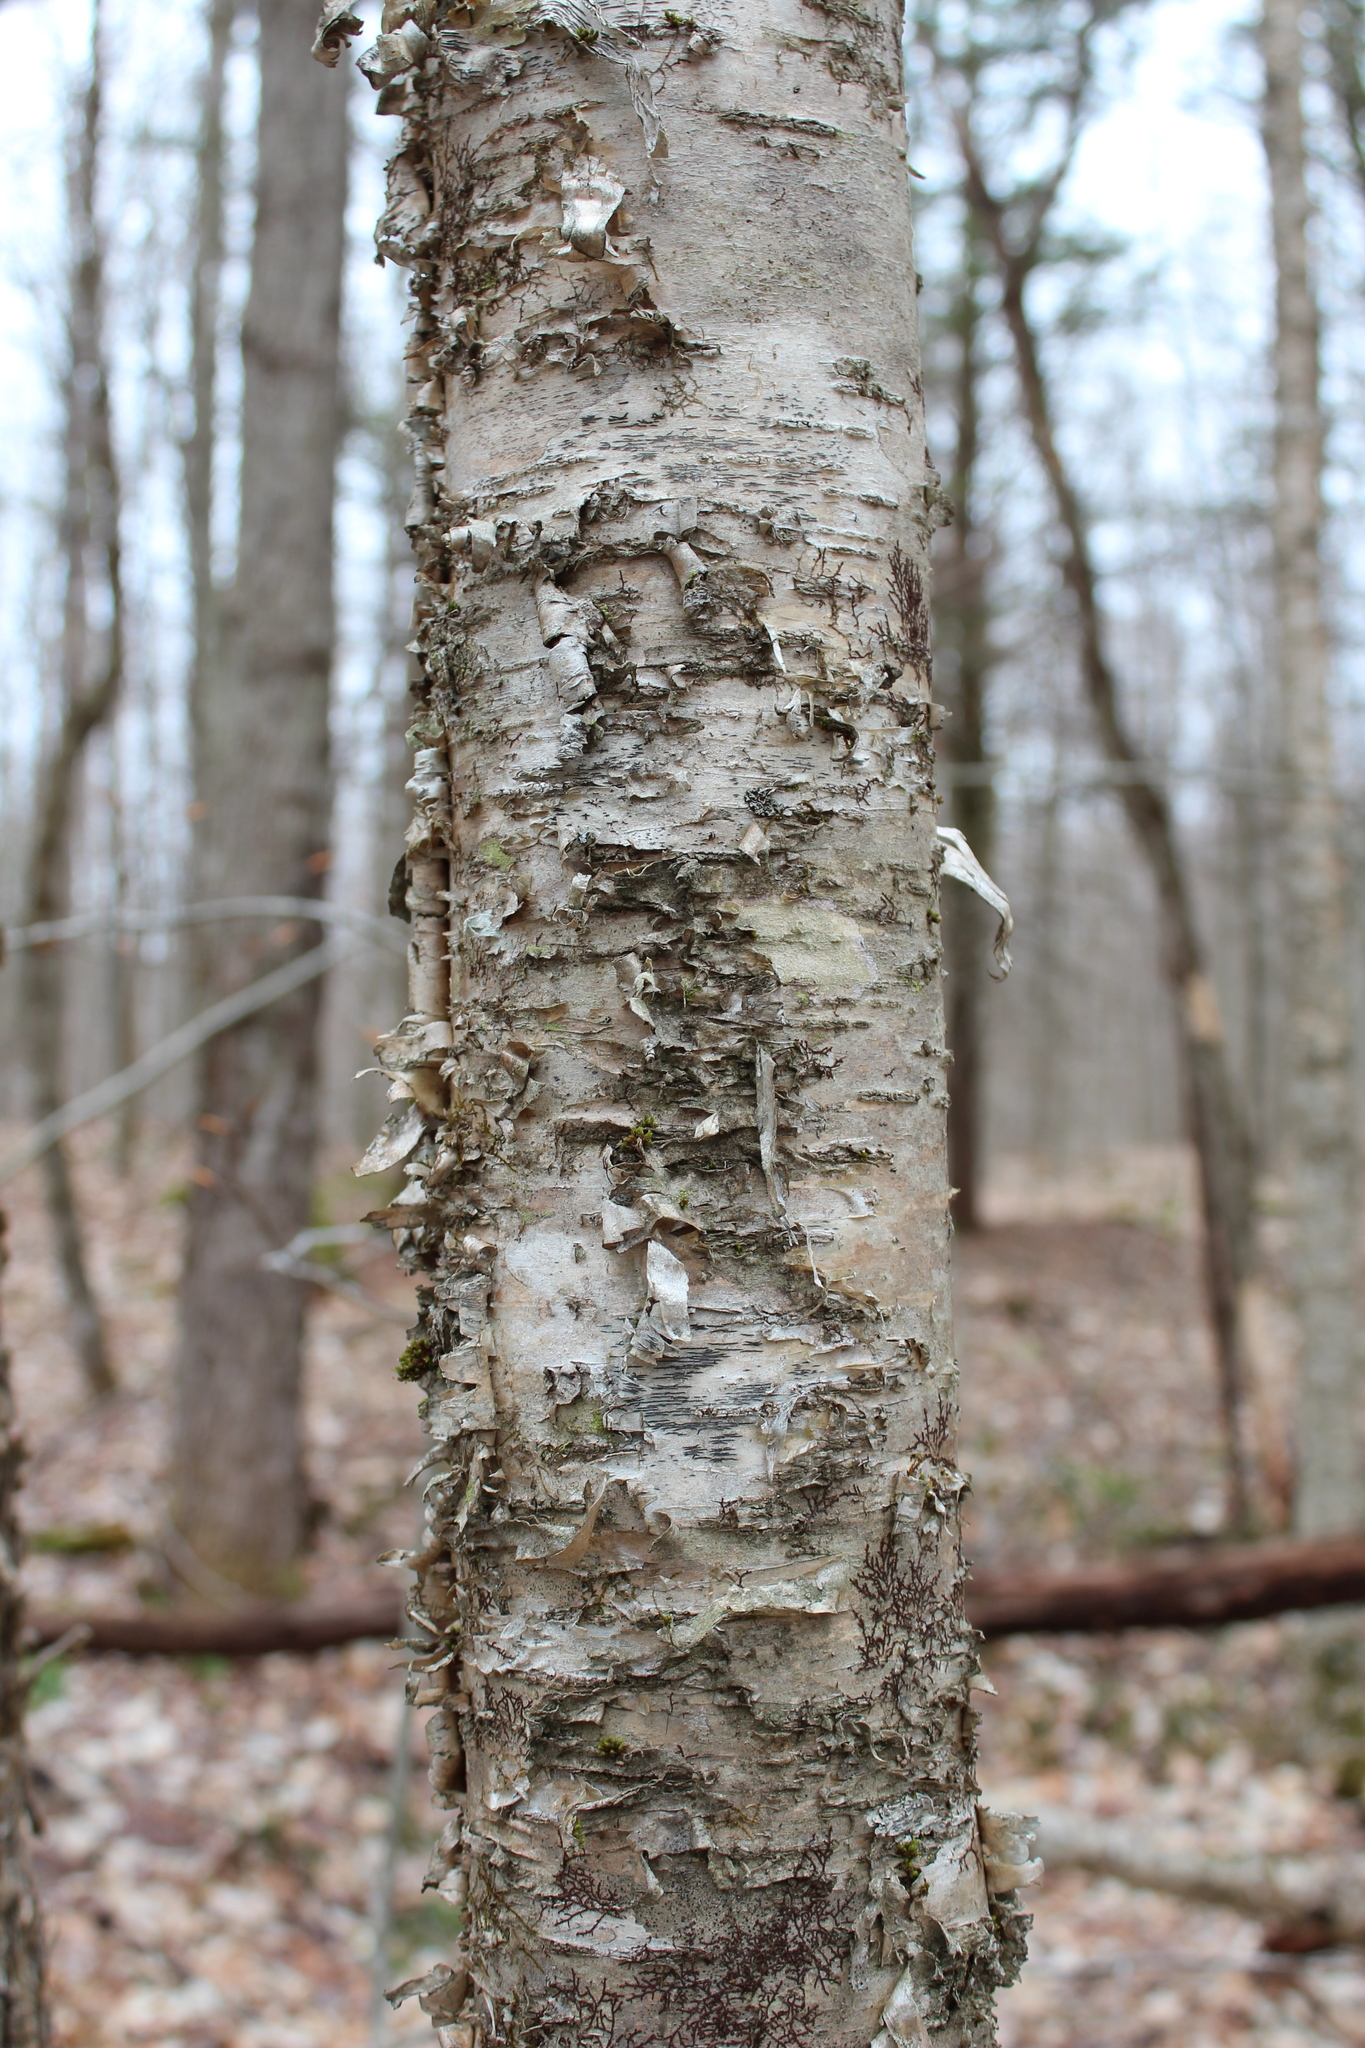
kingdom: Plantae
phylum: Tracheophyta
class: Magnoliopsida
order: Fagales
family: Betulaceae
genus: Betula
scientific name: Betula alleghaniensis
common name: Yellow birch
